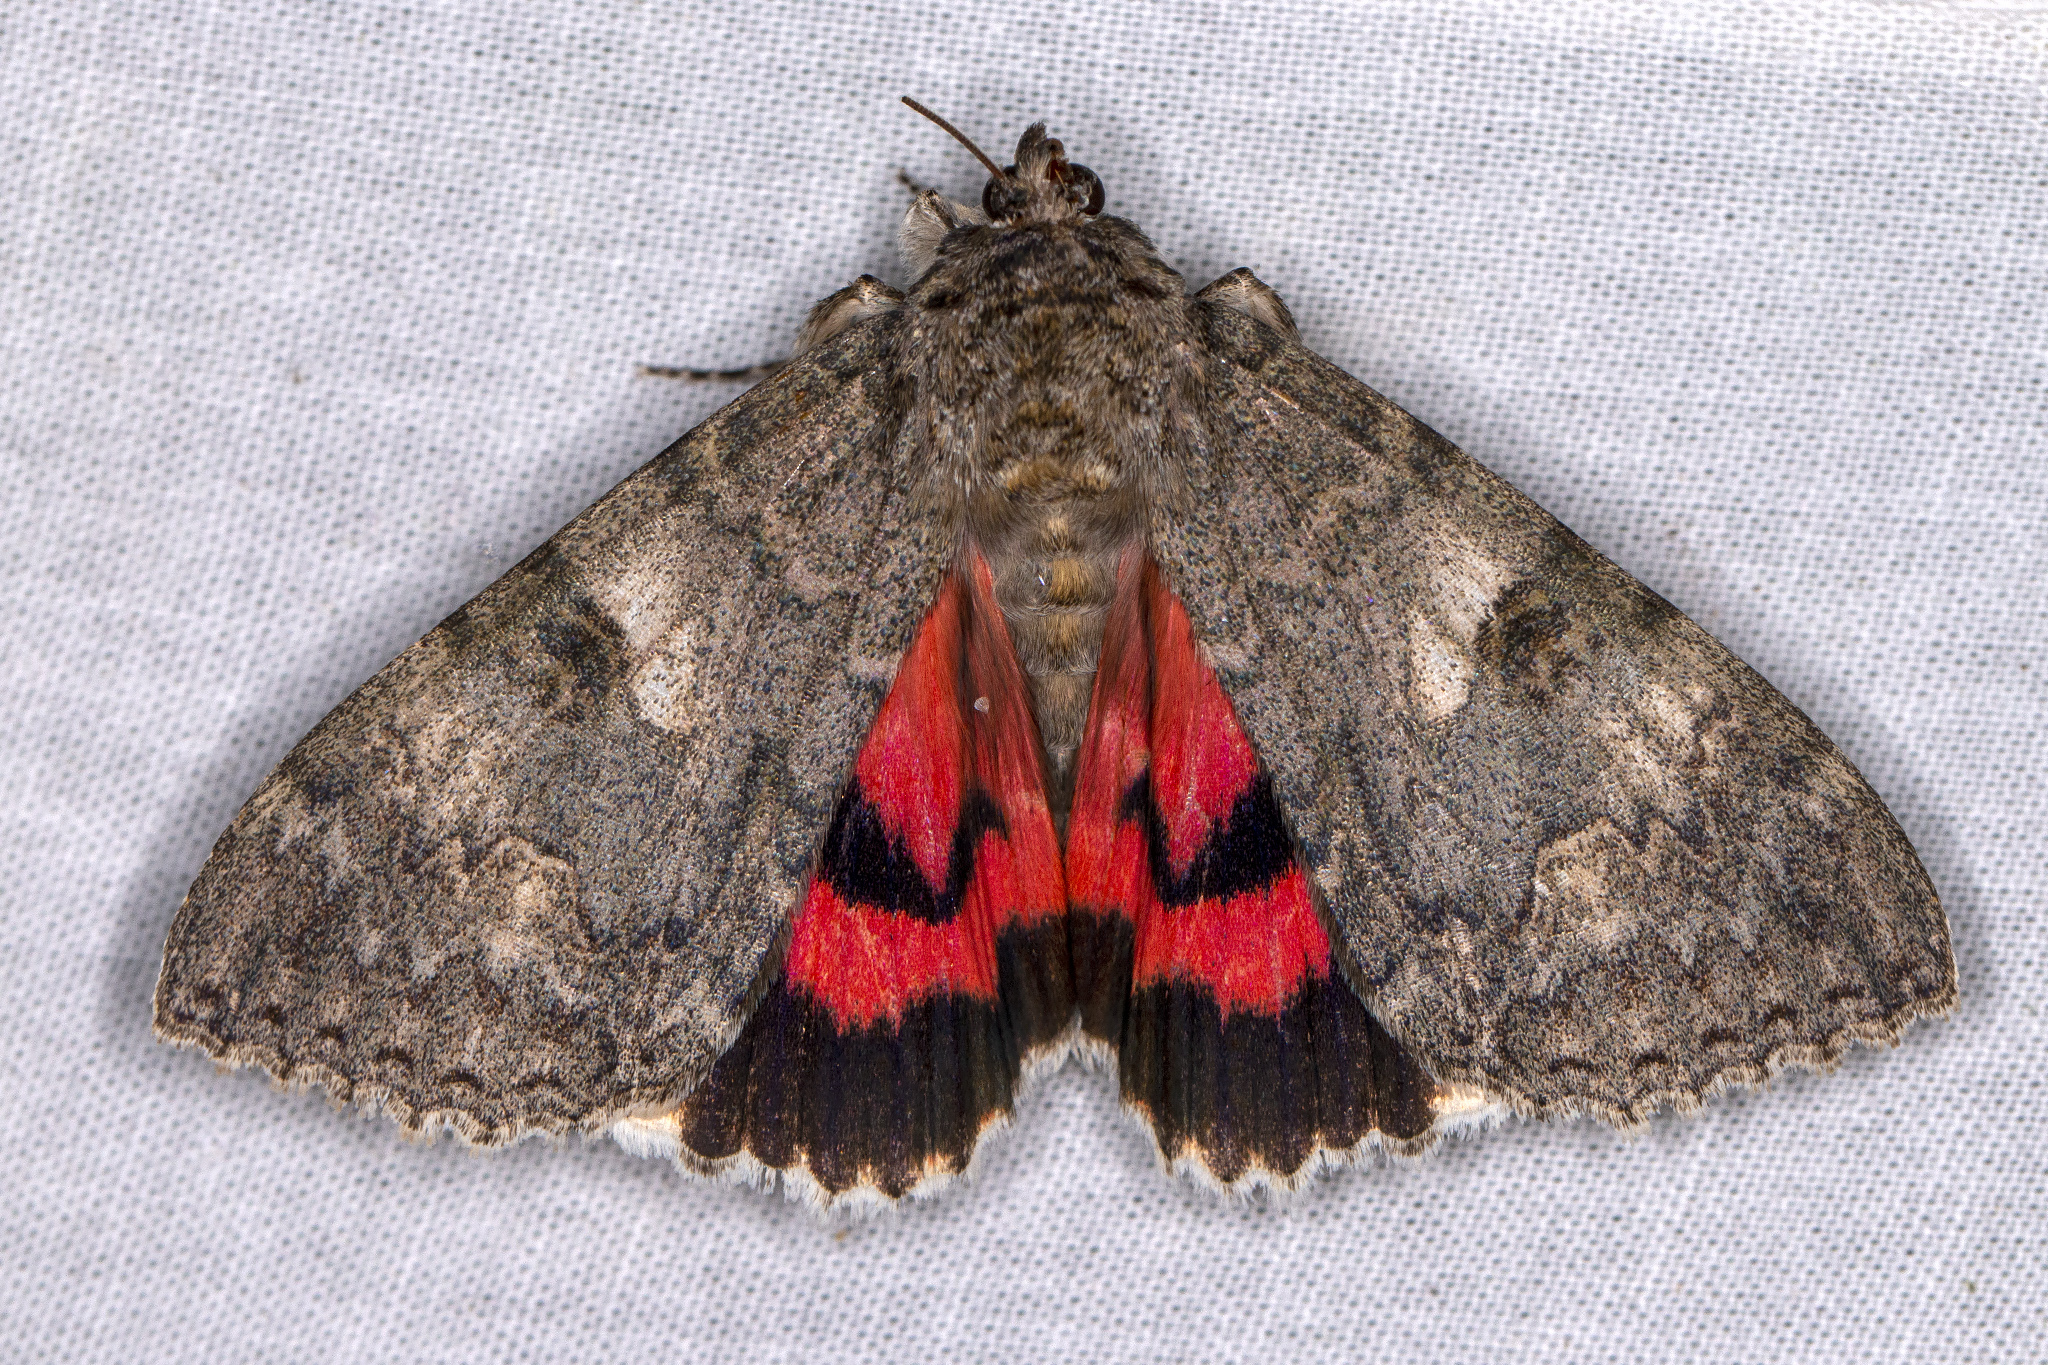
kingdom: Animalia
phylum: Arthropoda
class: Insecta
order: Lepidoptera
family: Erebidae
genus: Catocala
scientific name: Catocala nupta
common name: Red underwing
